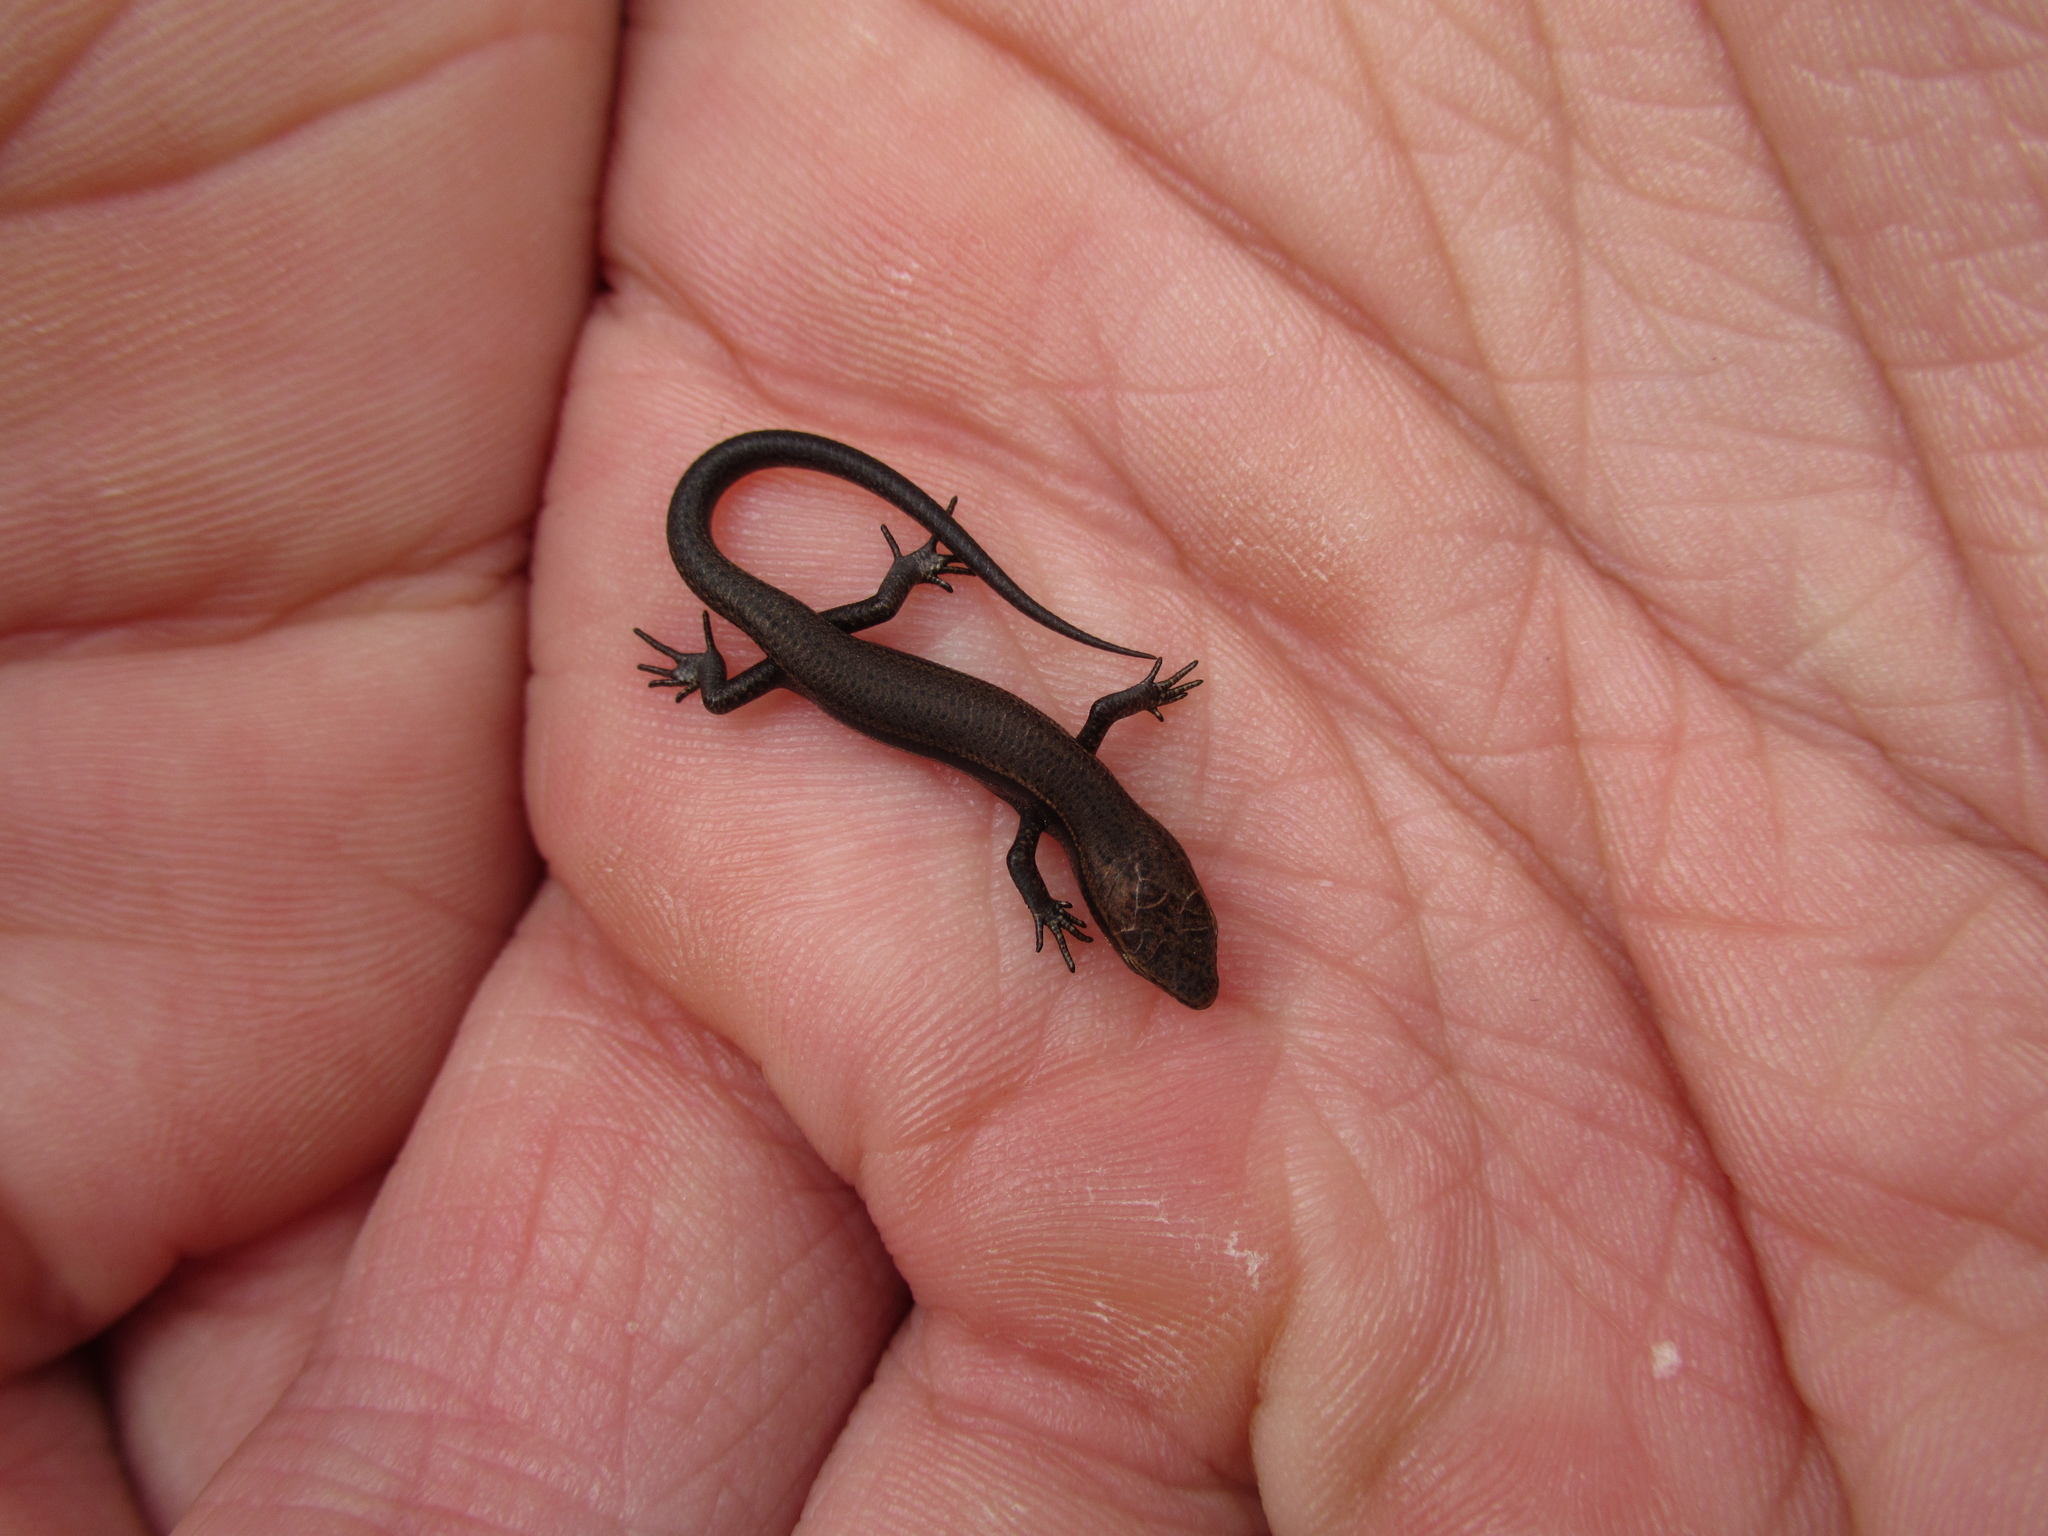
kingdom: Animalia
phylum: Chordata
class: Squamata
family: Scincidae
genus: Lampropholis
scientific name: Lampropholis delicata
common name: Plague skink
